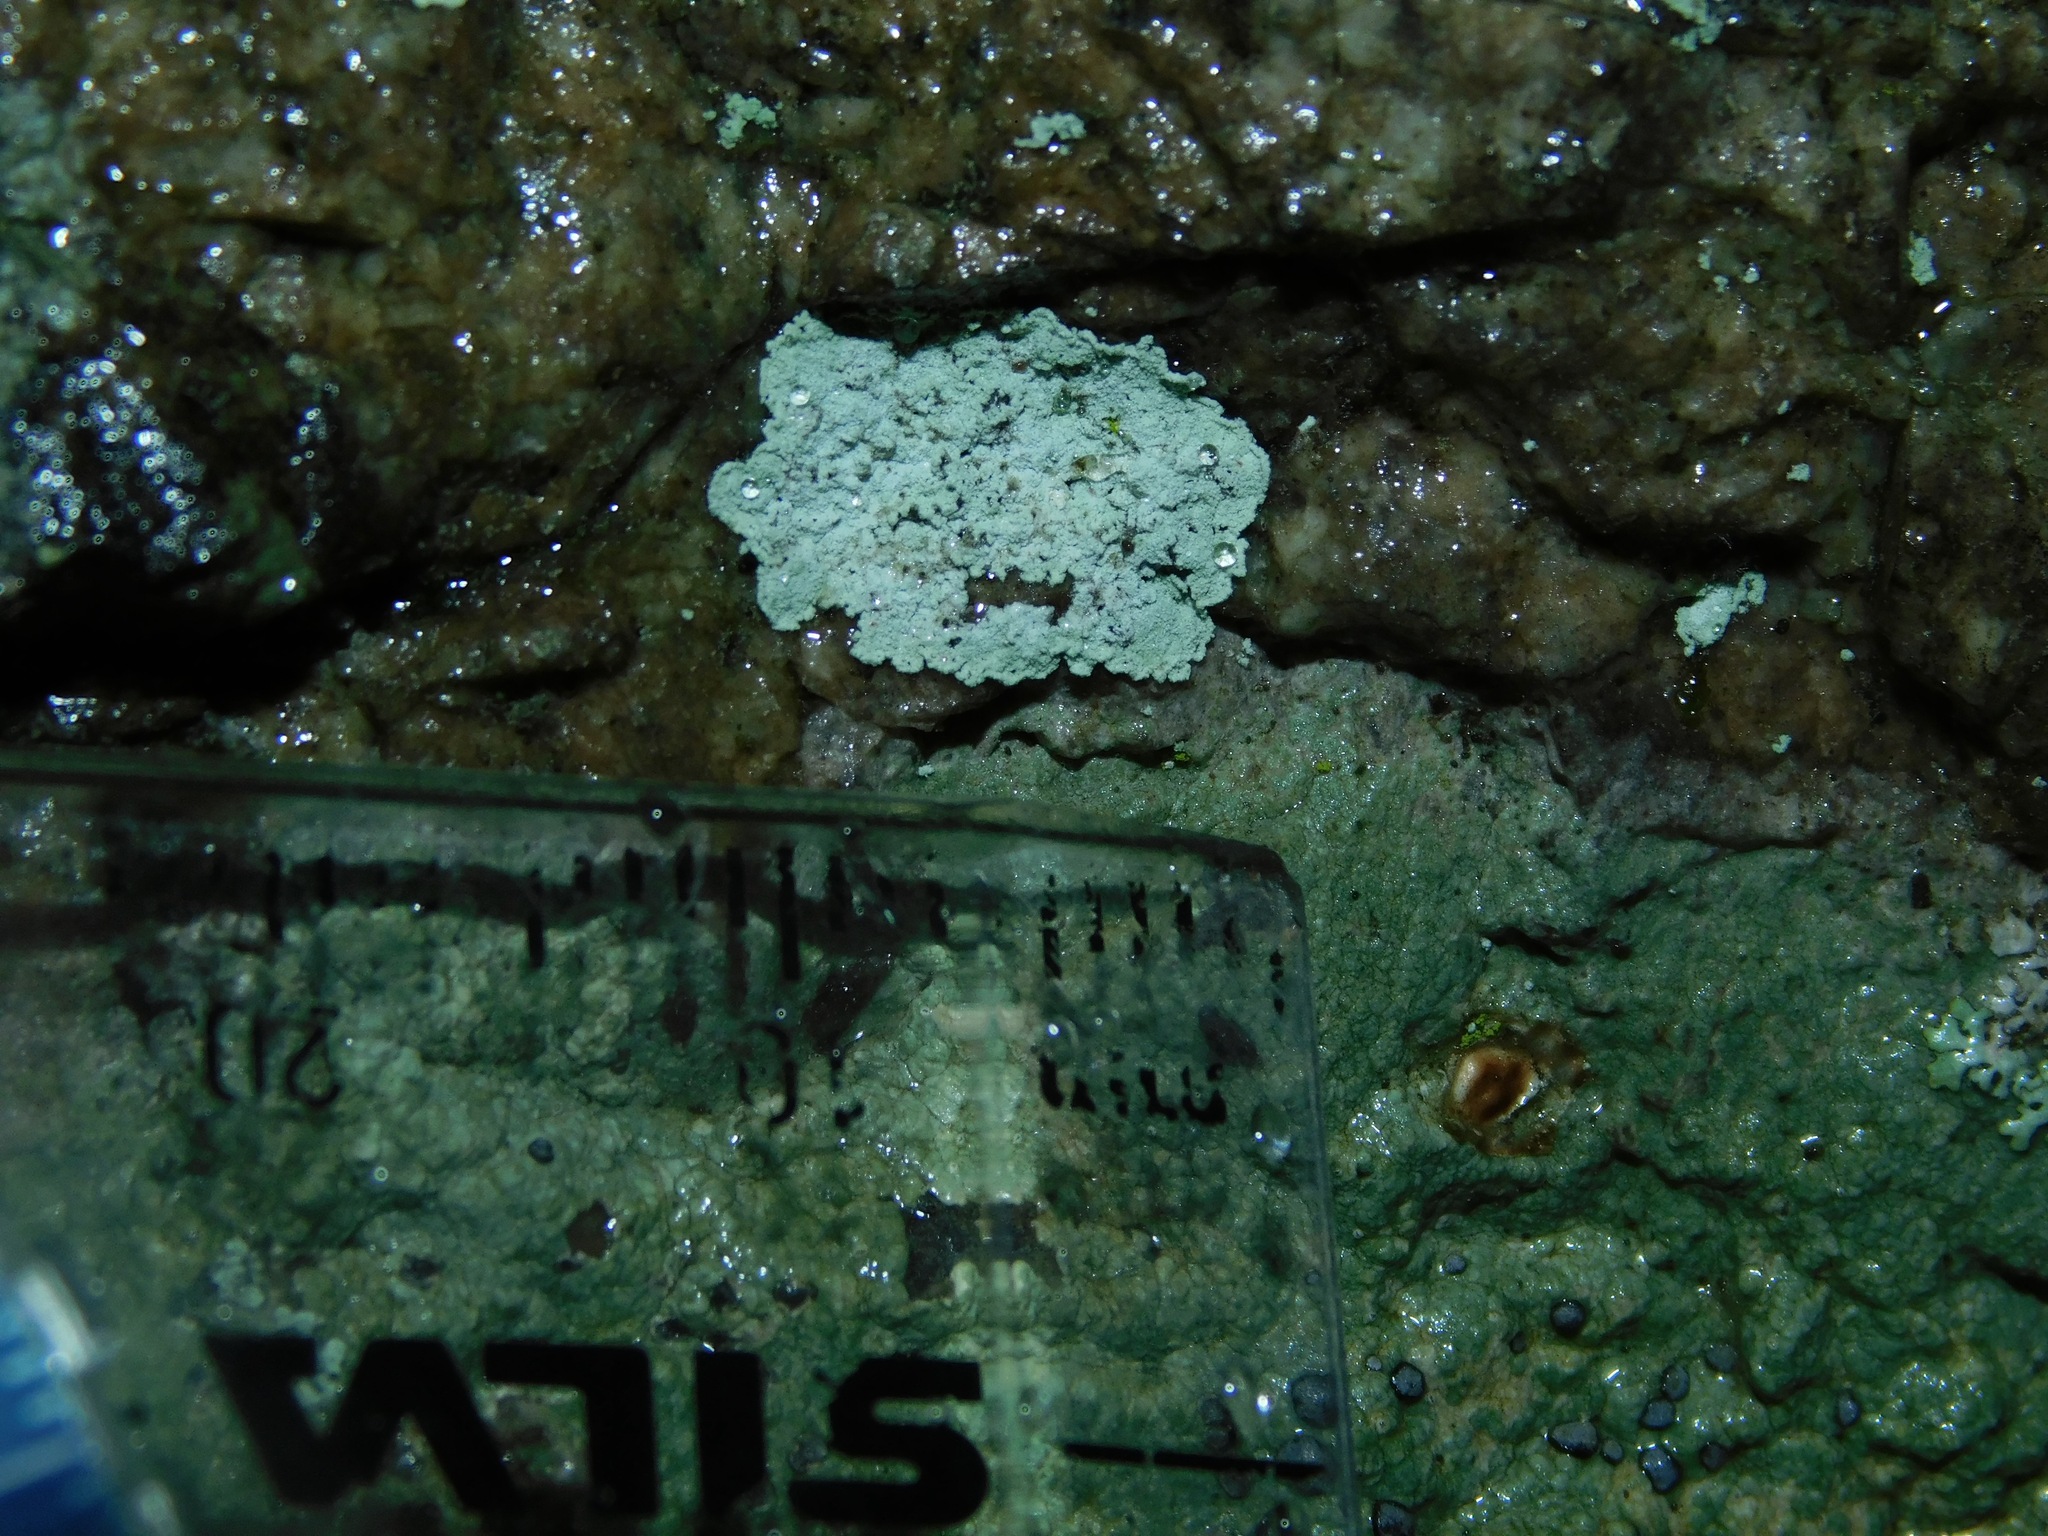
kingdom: Fungi
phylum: Ascomycota
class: Lecanoromycetes
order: Lecanorales
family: Stereocaulaceae
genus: Lepraria
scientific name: Lepraria normandinoides
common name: Elf-ear dust
